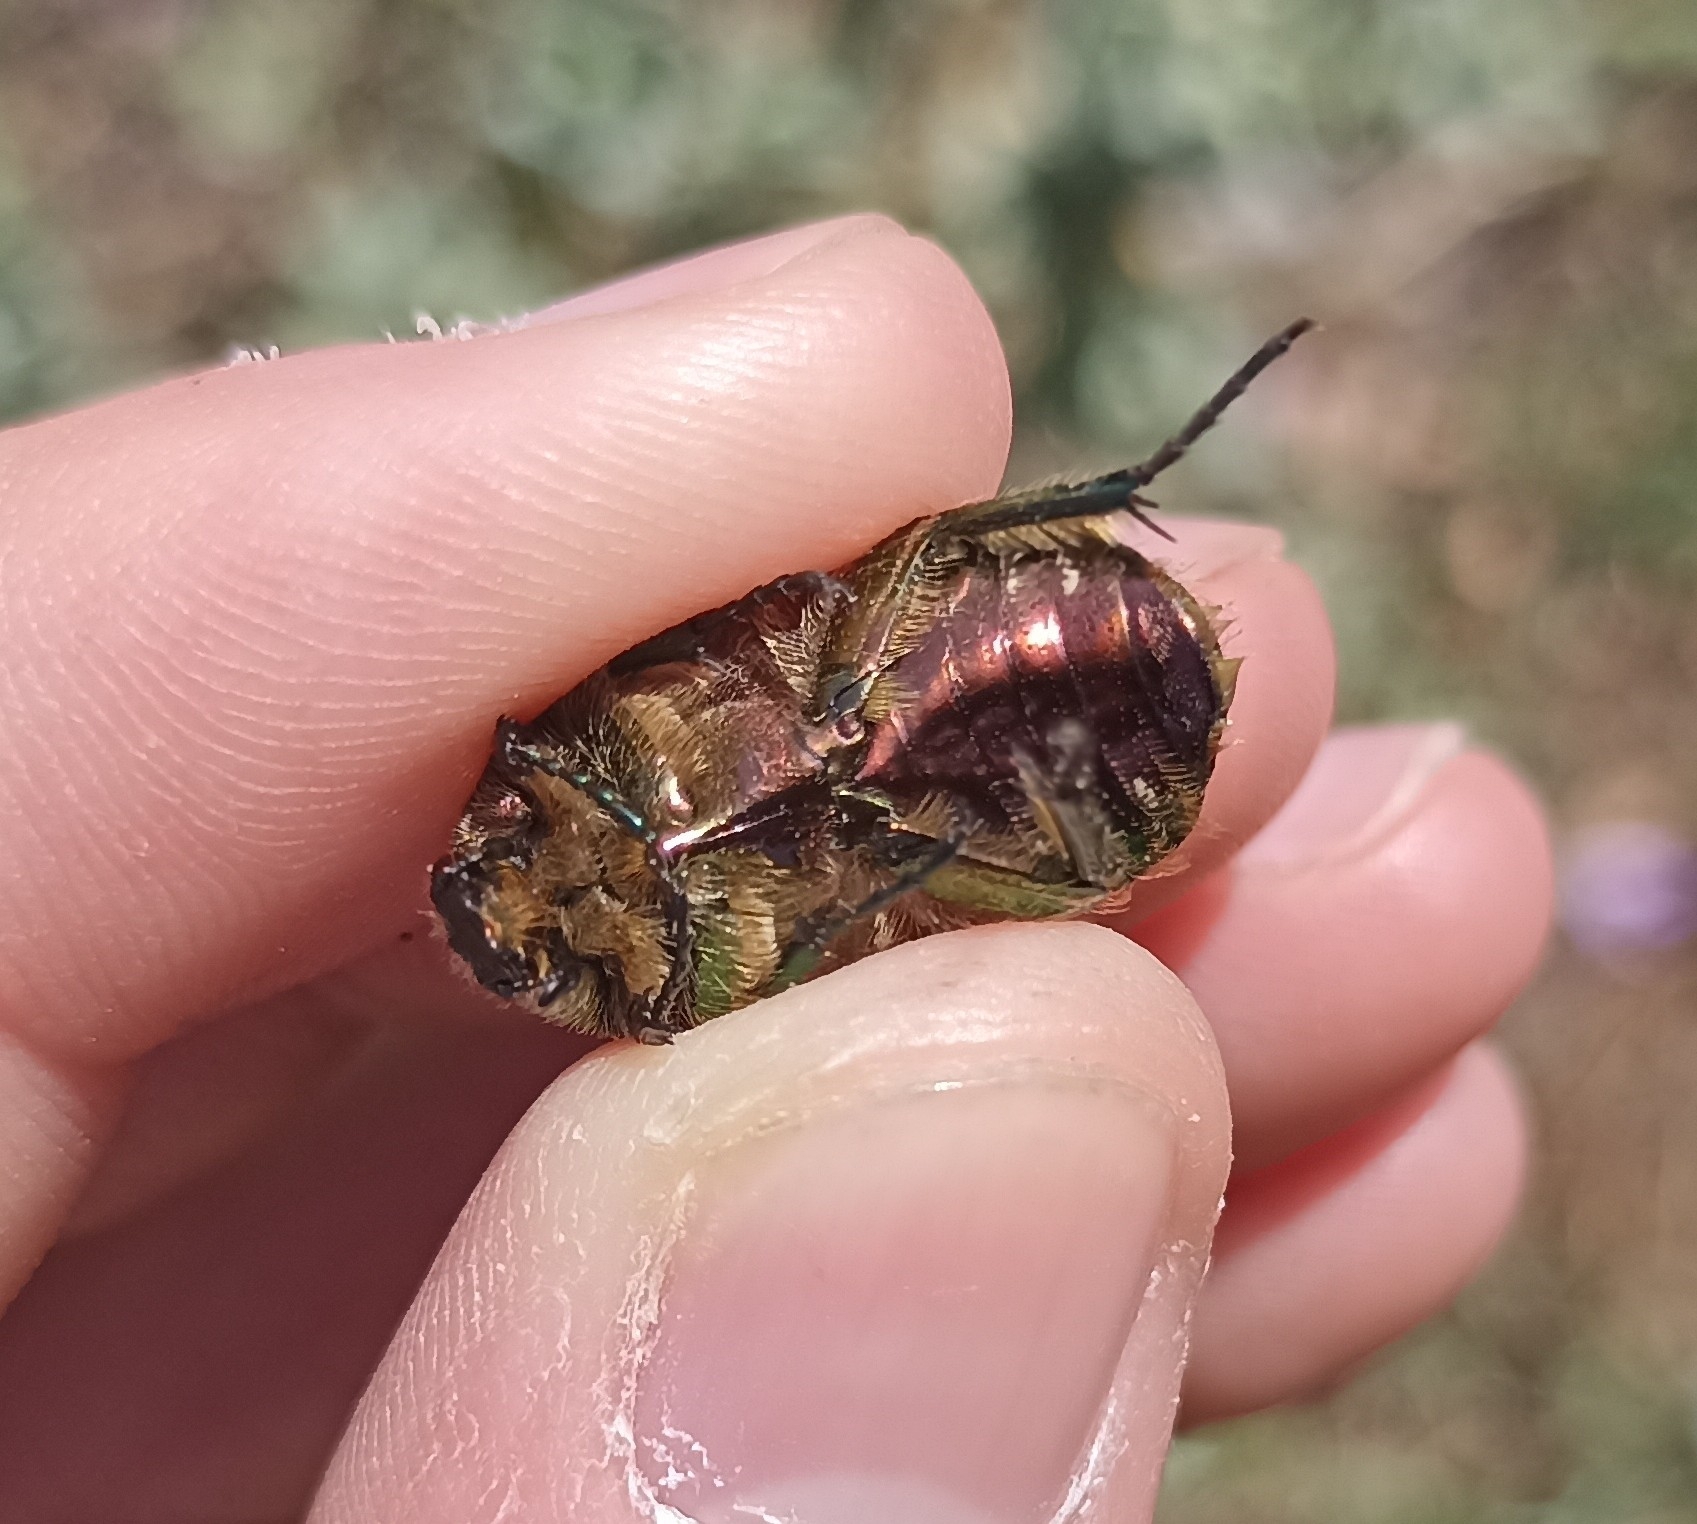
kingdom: Animalia
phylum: Arthropoda
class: Insecta
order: Coleoptera
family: Scarabaeidae
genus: Cetonia
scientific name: Cetonia aurata
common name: Rose chafer
